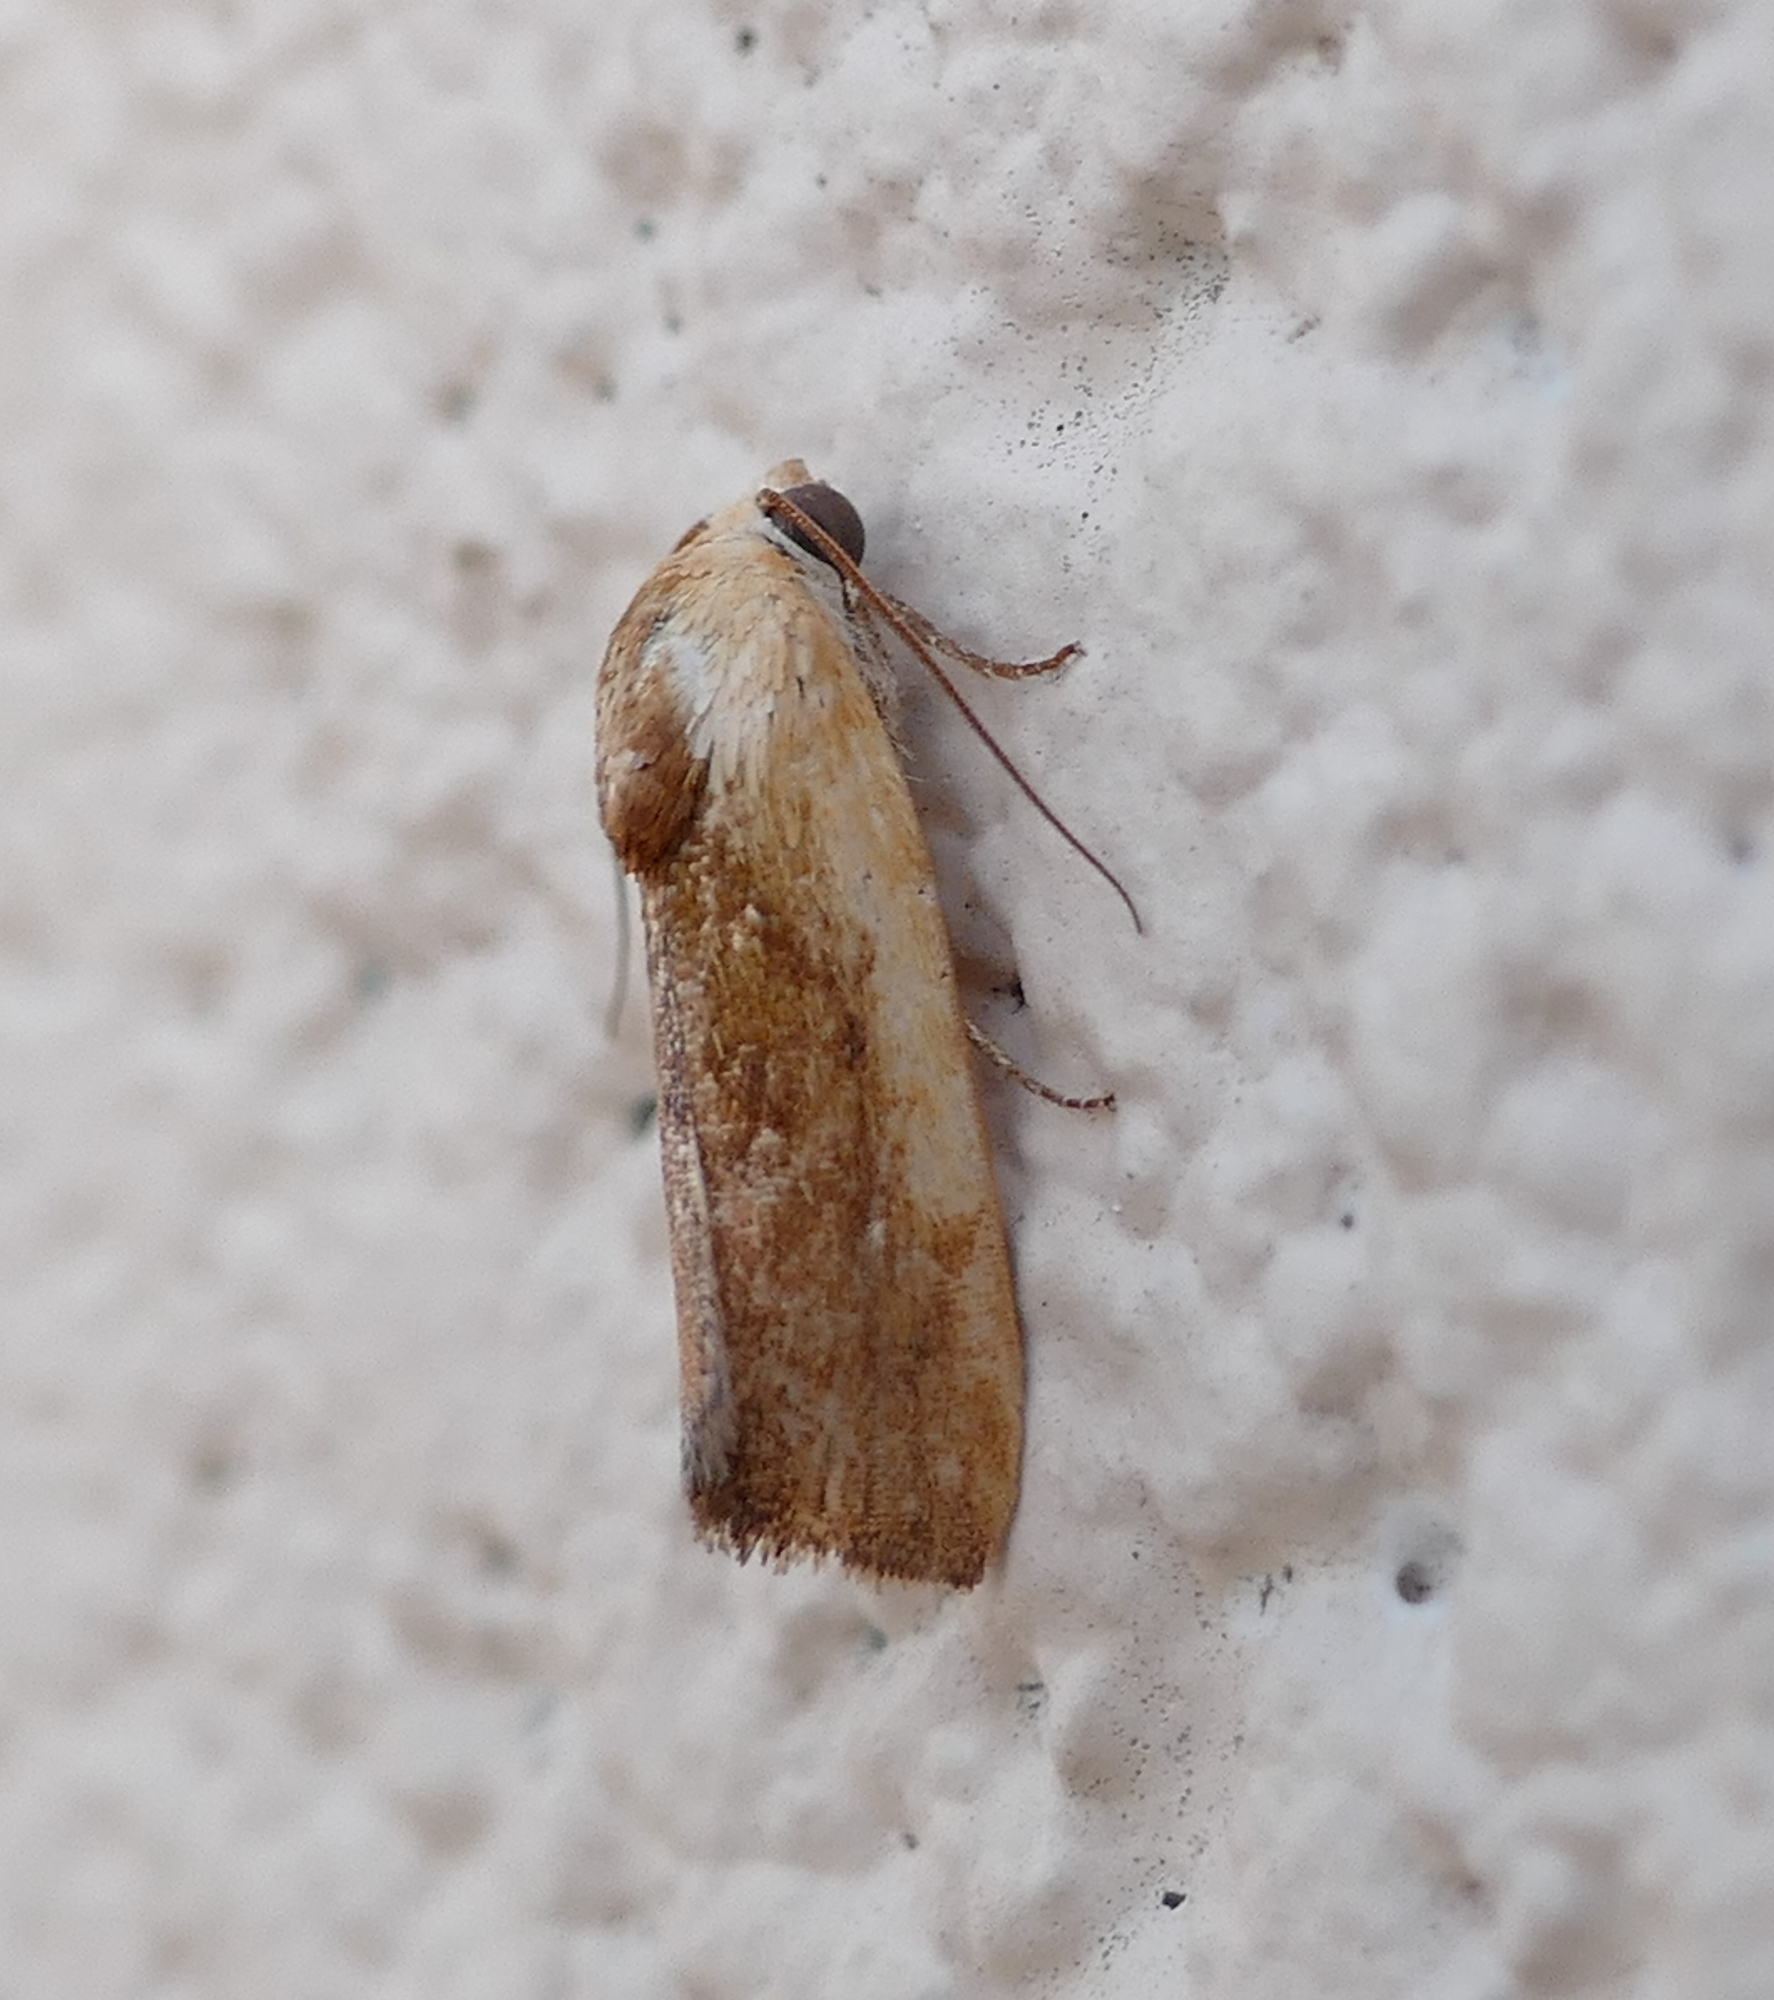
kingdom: Animalia
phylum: Arthropoda
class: Insecta
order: Lepidoptera
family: Noctuidae
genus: Acontia
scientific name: Acontia exigua
